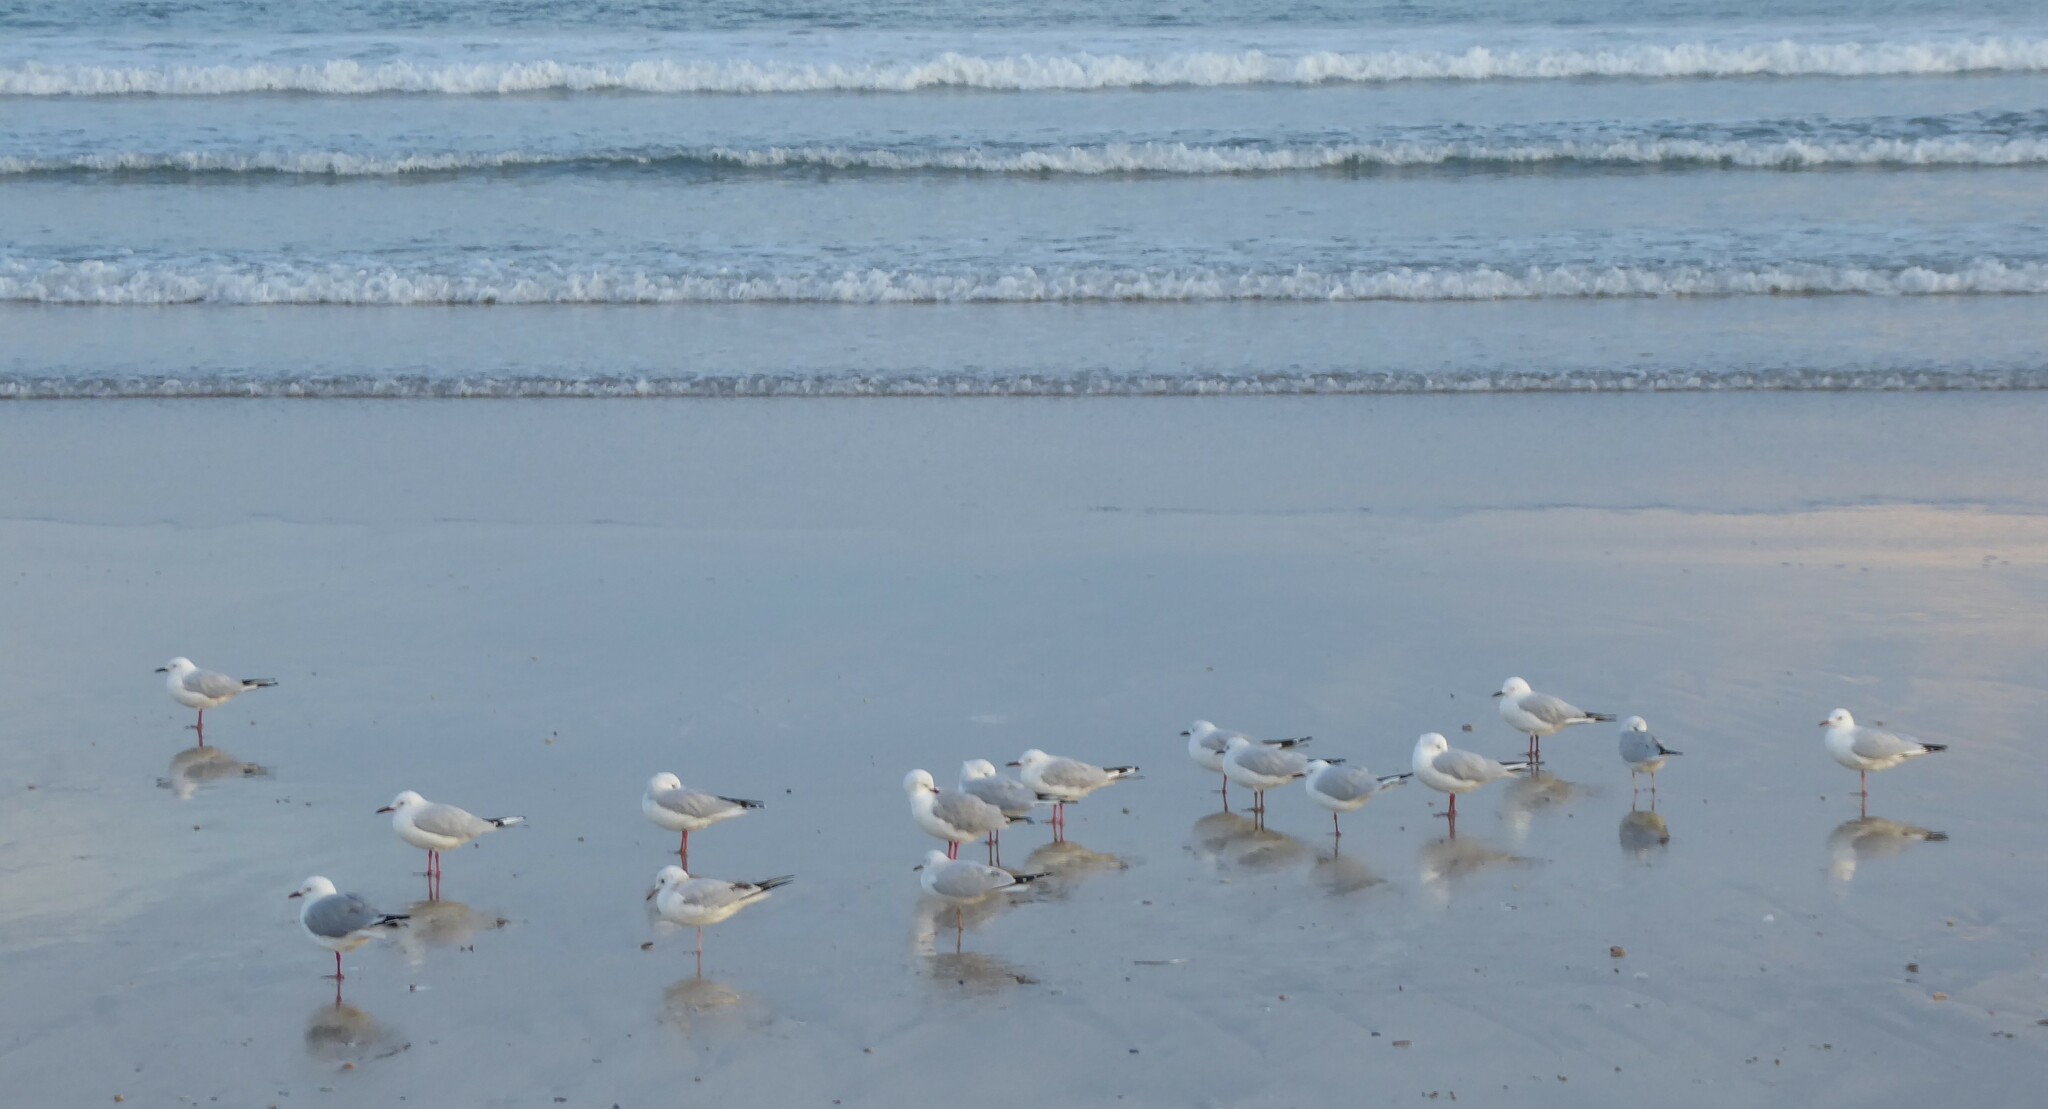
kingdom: Animalia
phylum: Chordata
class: Aves
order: Charadriiformes
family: Laridae
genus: Chroicocephalus
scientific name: Chroicocephalus bulleri
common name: Black-billed gull
